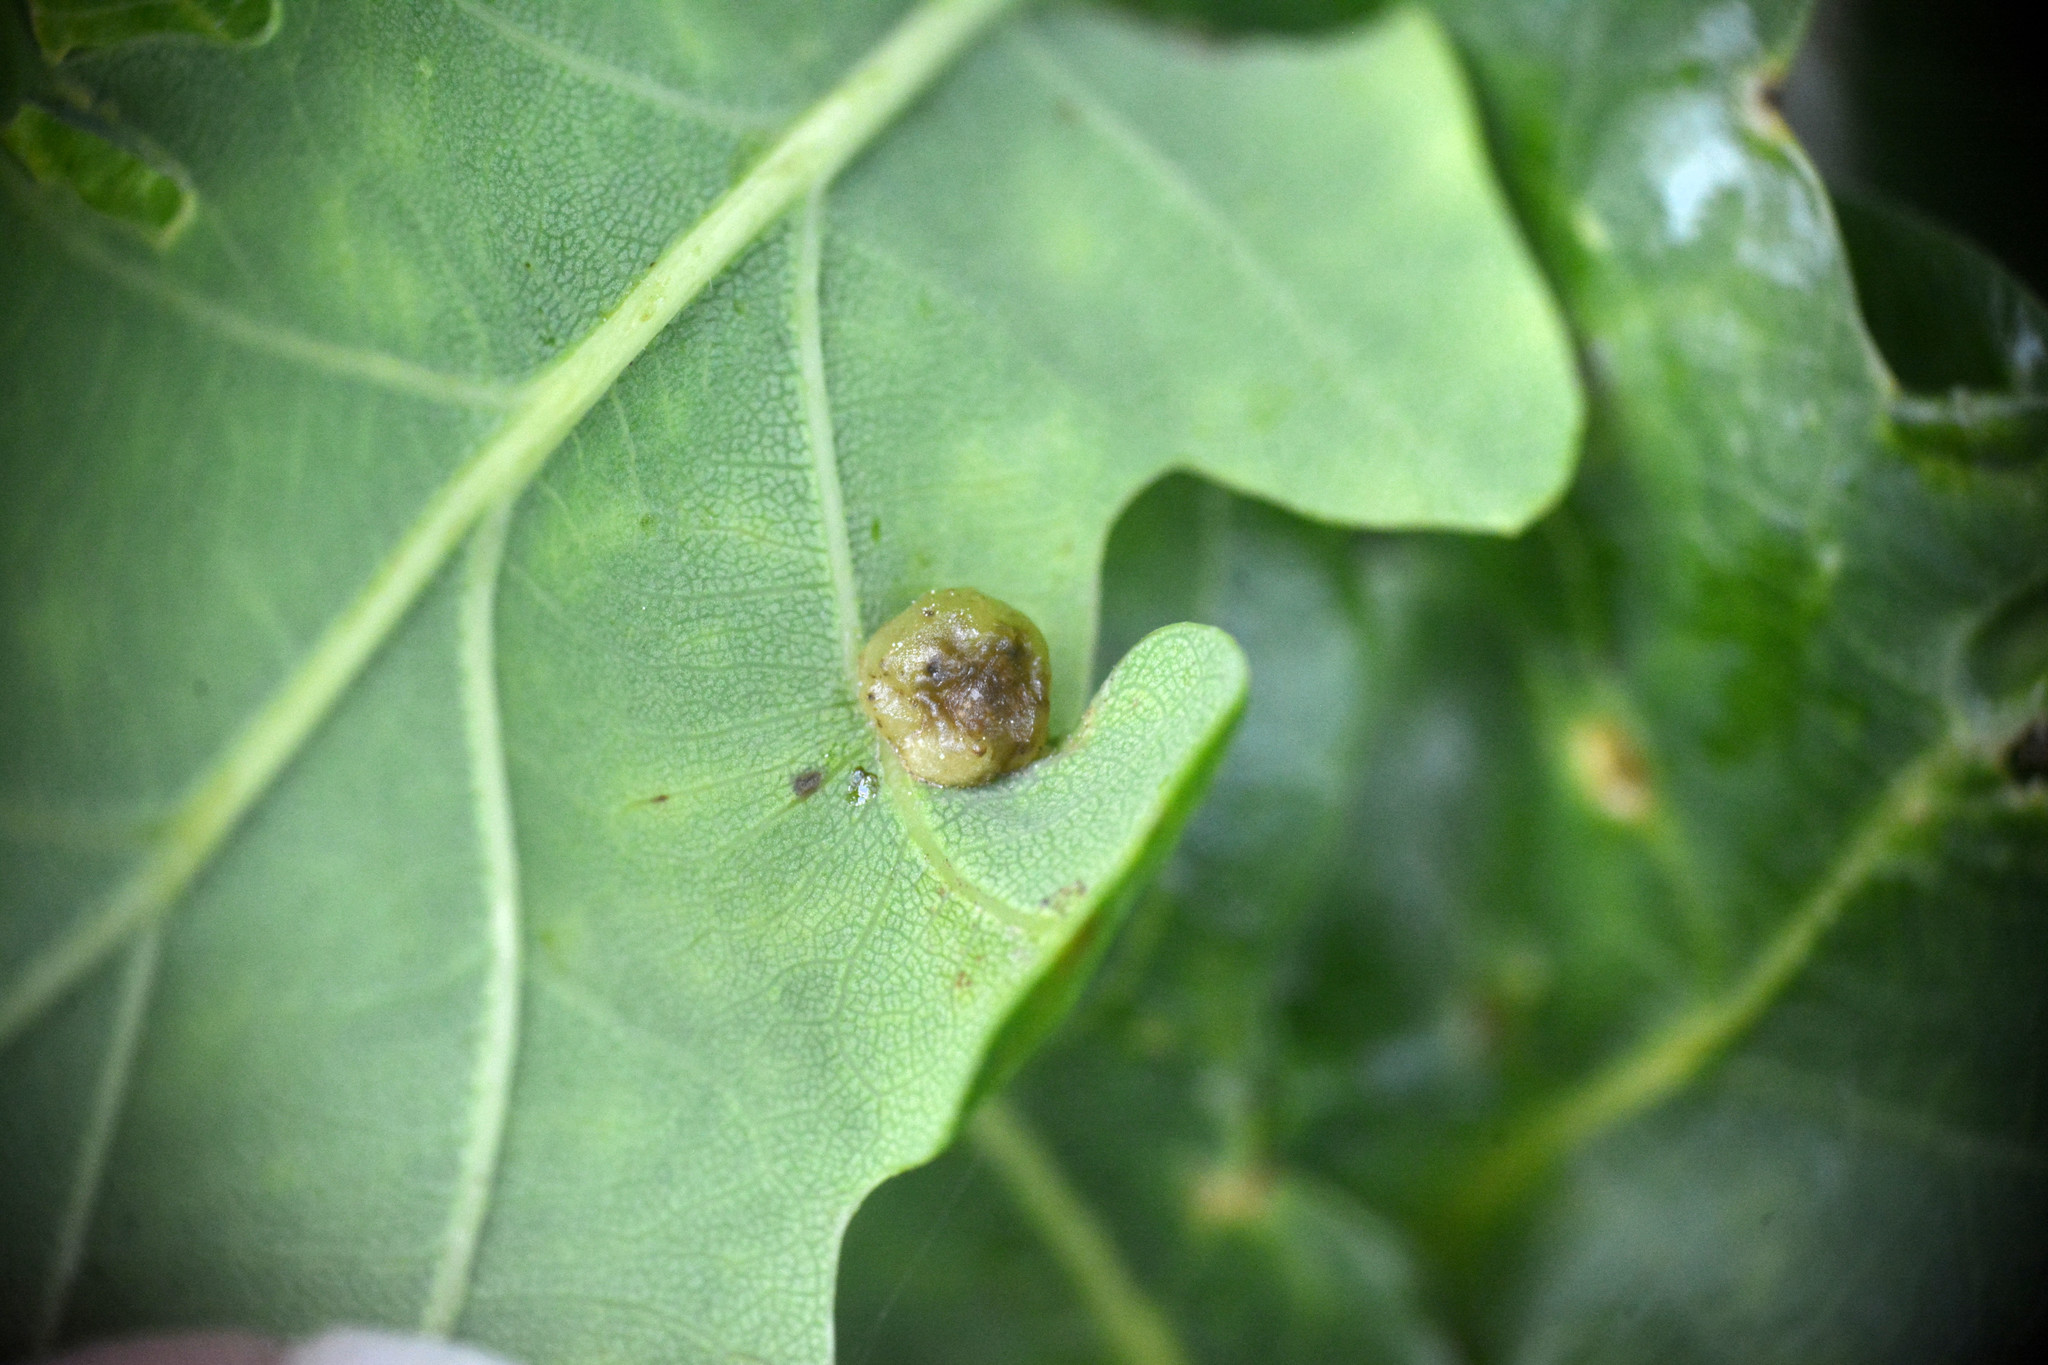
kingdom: Animalia
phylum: Arthropoda
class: Insecta
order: Hymenoptera
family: Cynipidae
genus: Neuroterus
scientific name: Neuroterus quercusbaccarum
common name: Common spangle gall
